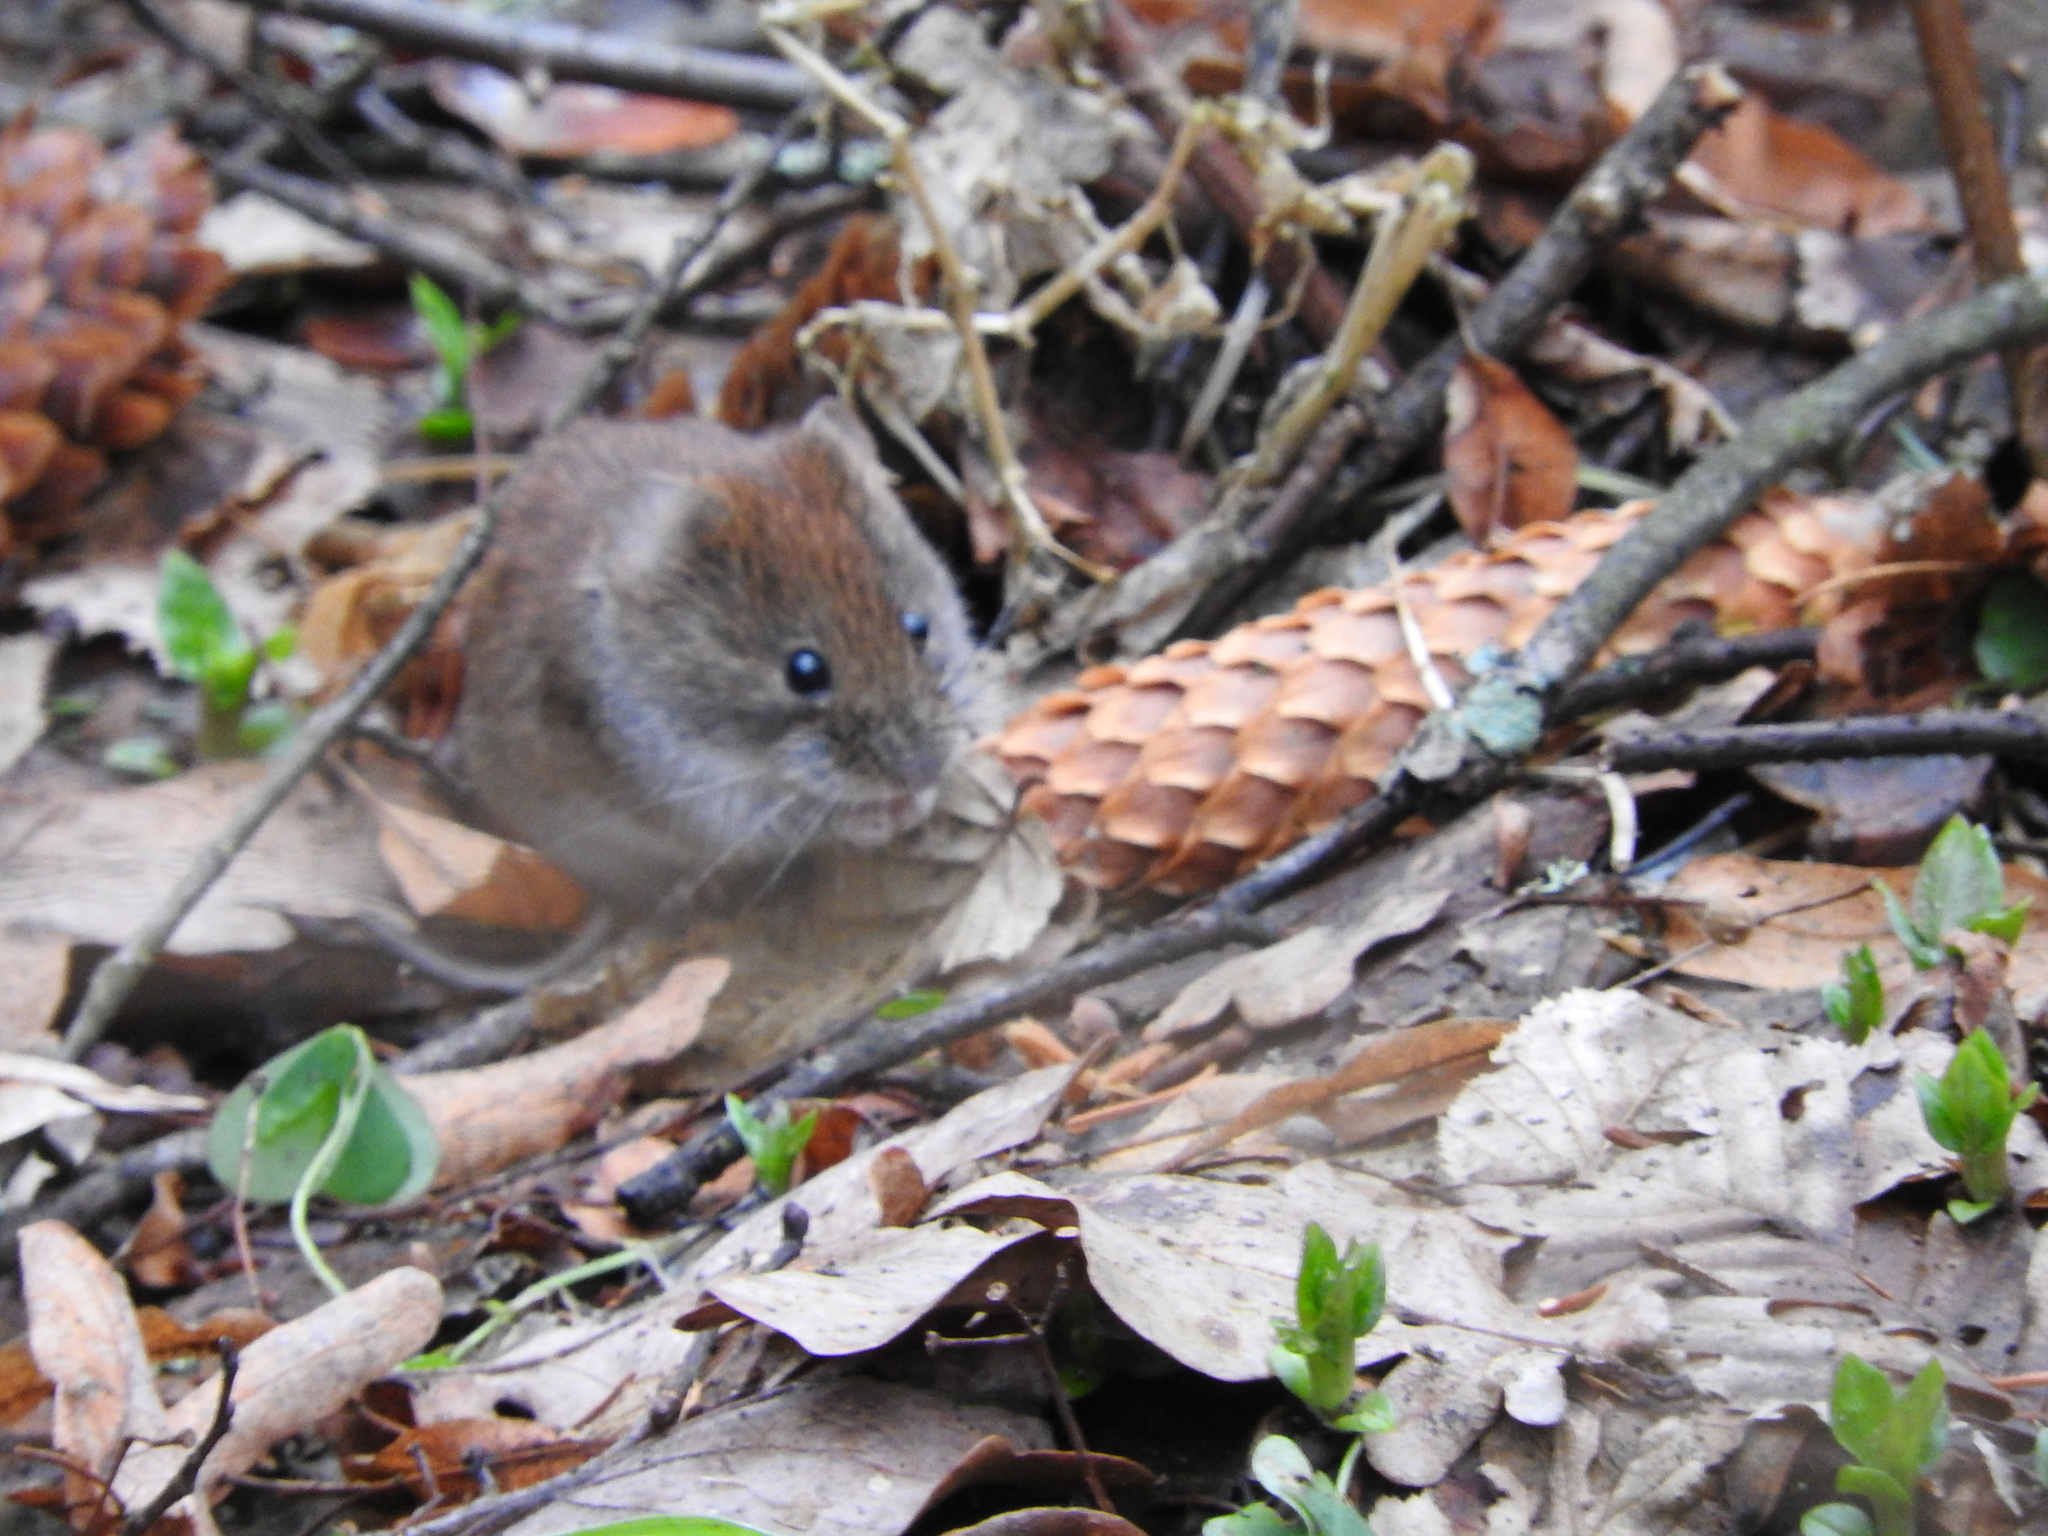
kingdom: Animalia
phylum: Chordata
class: Mammalia
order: Rodentia
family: Cricetidae
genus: Myodes
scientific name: Myodes glareolus
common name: Bank vole
